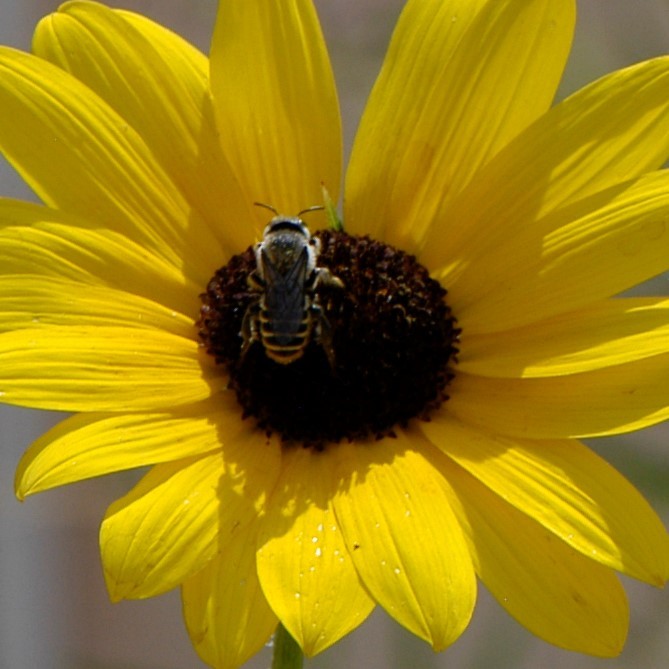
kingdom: Animalia
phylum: Arthropoda
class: Insecta
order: Hymenoptera
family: Megachilidae
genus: Lithurgopsis
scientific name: Lithurgopsis apicalis
